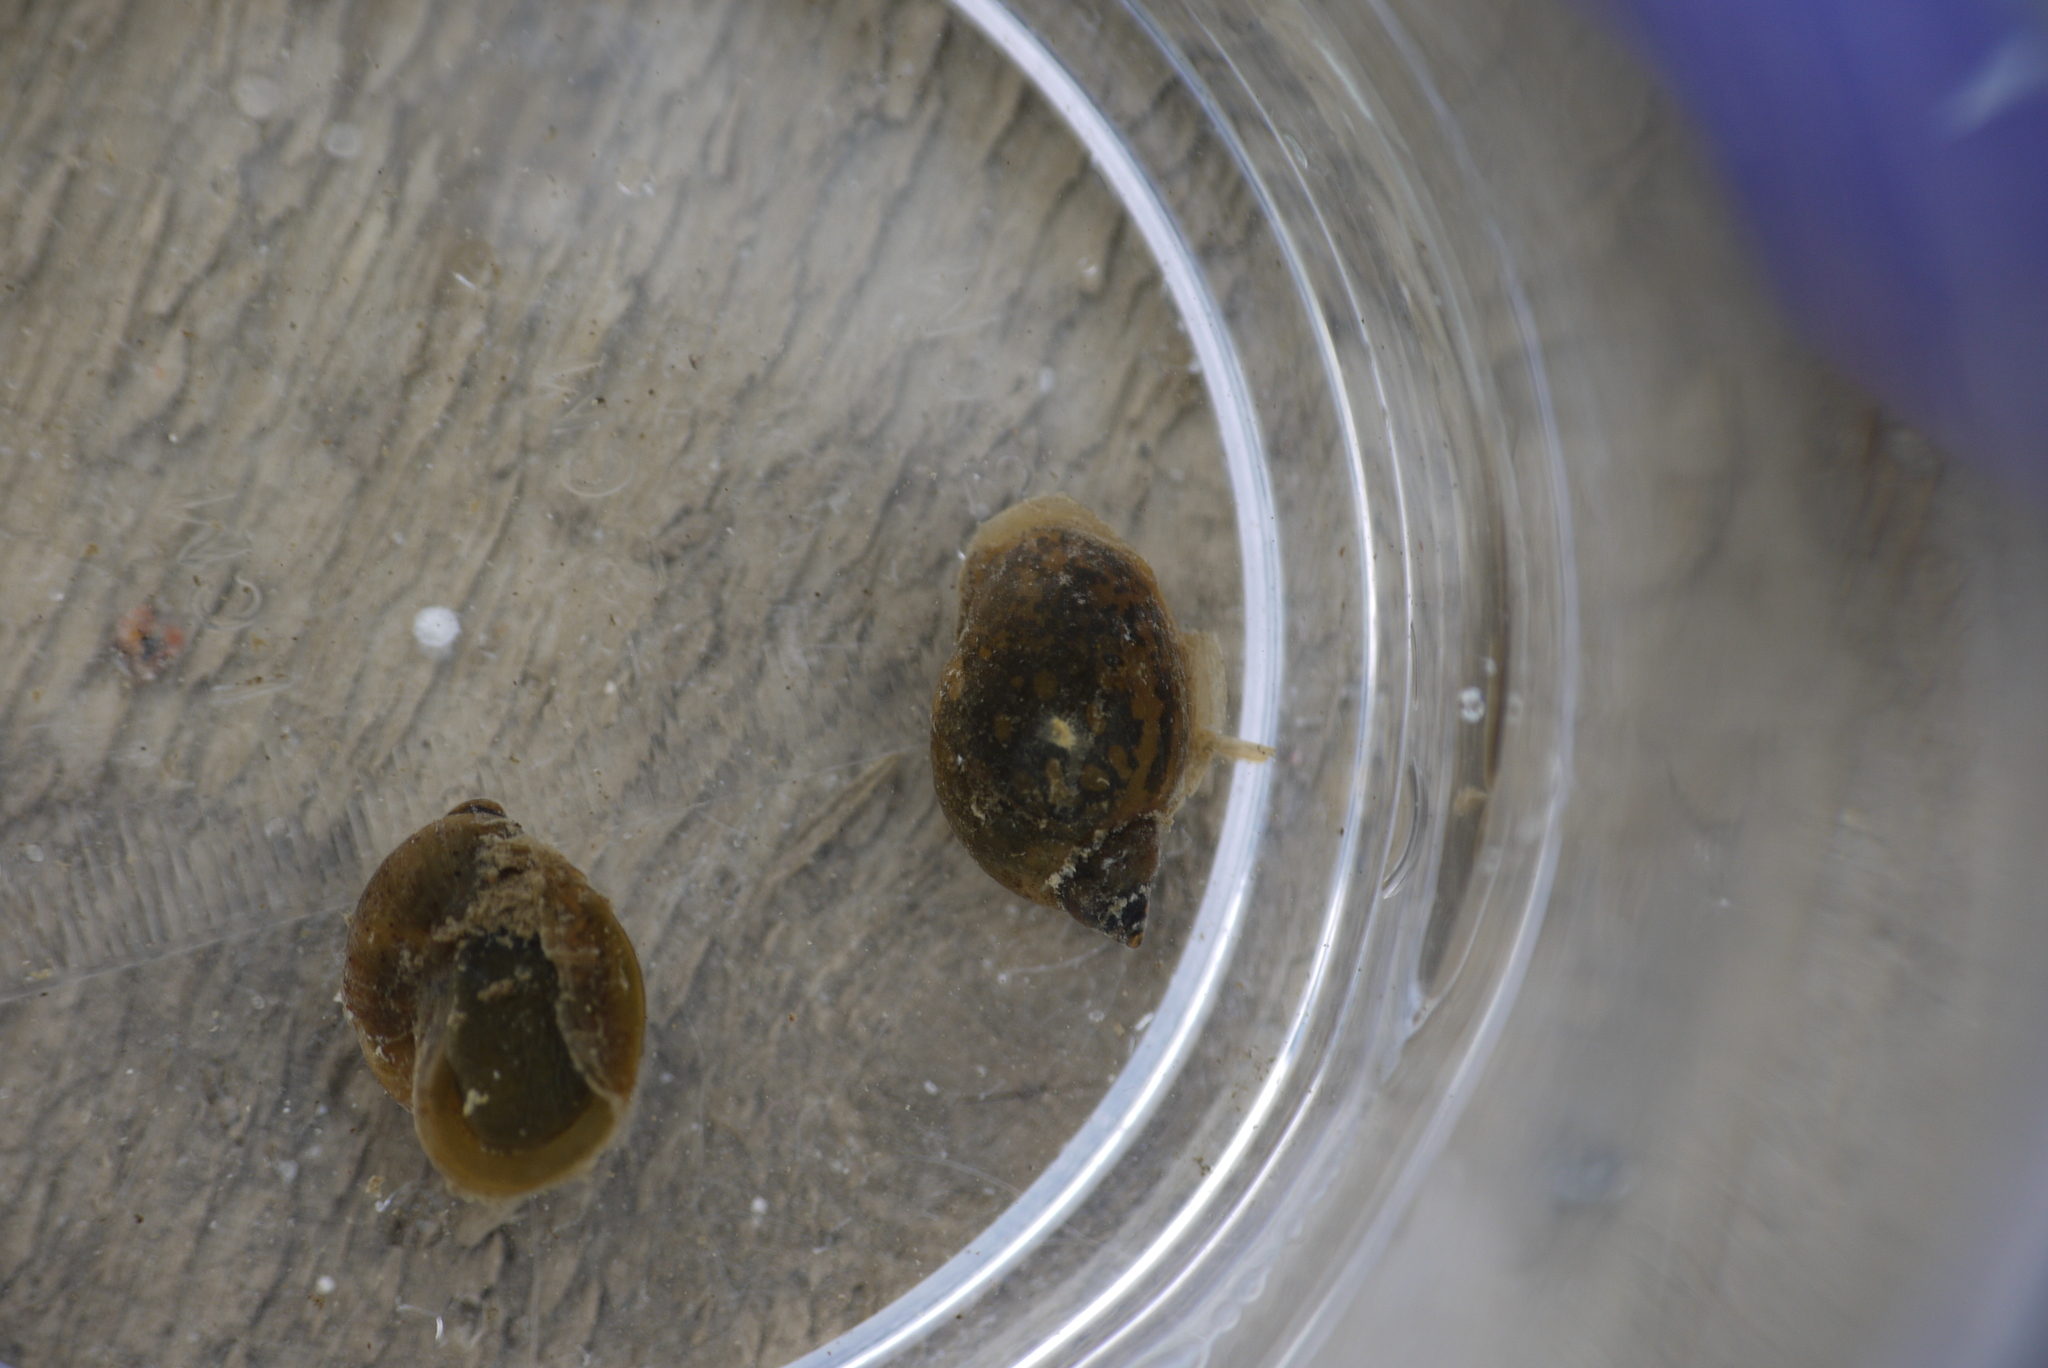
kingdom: Animalia
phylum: Mollusca
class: Gastropoda
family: Lymnaeidae
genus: Ampullaceana
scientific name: Ampullaceana balthica
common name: Wandering pond snail
